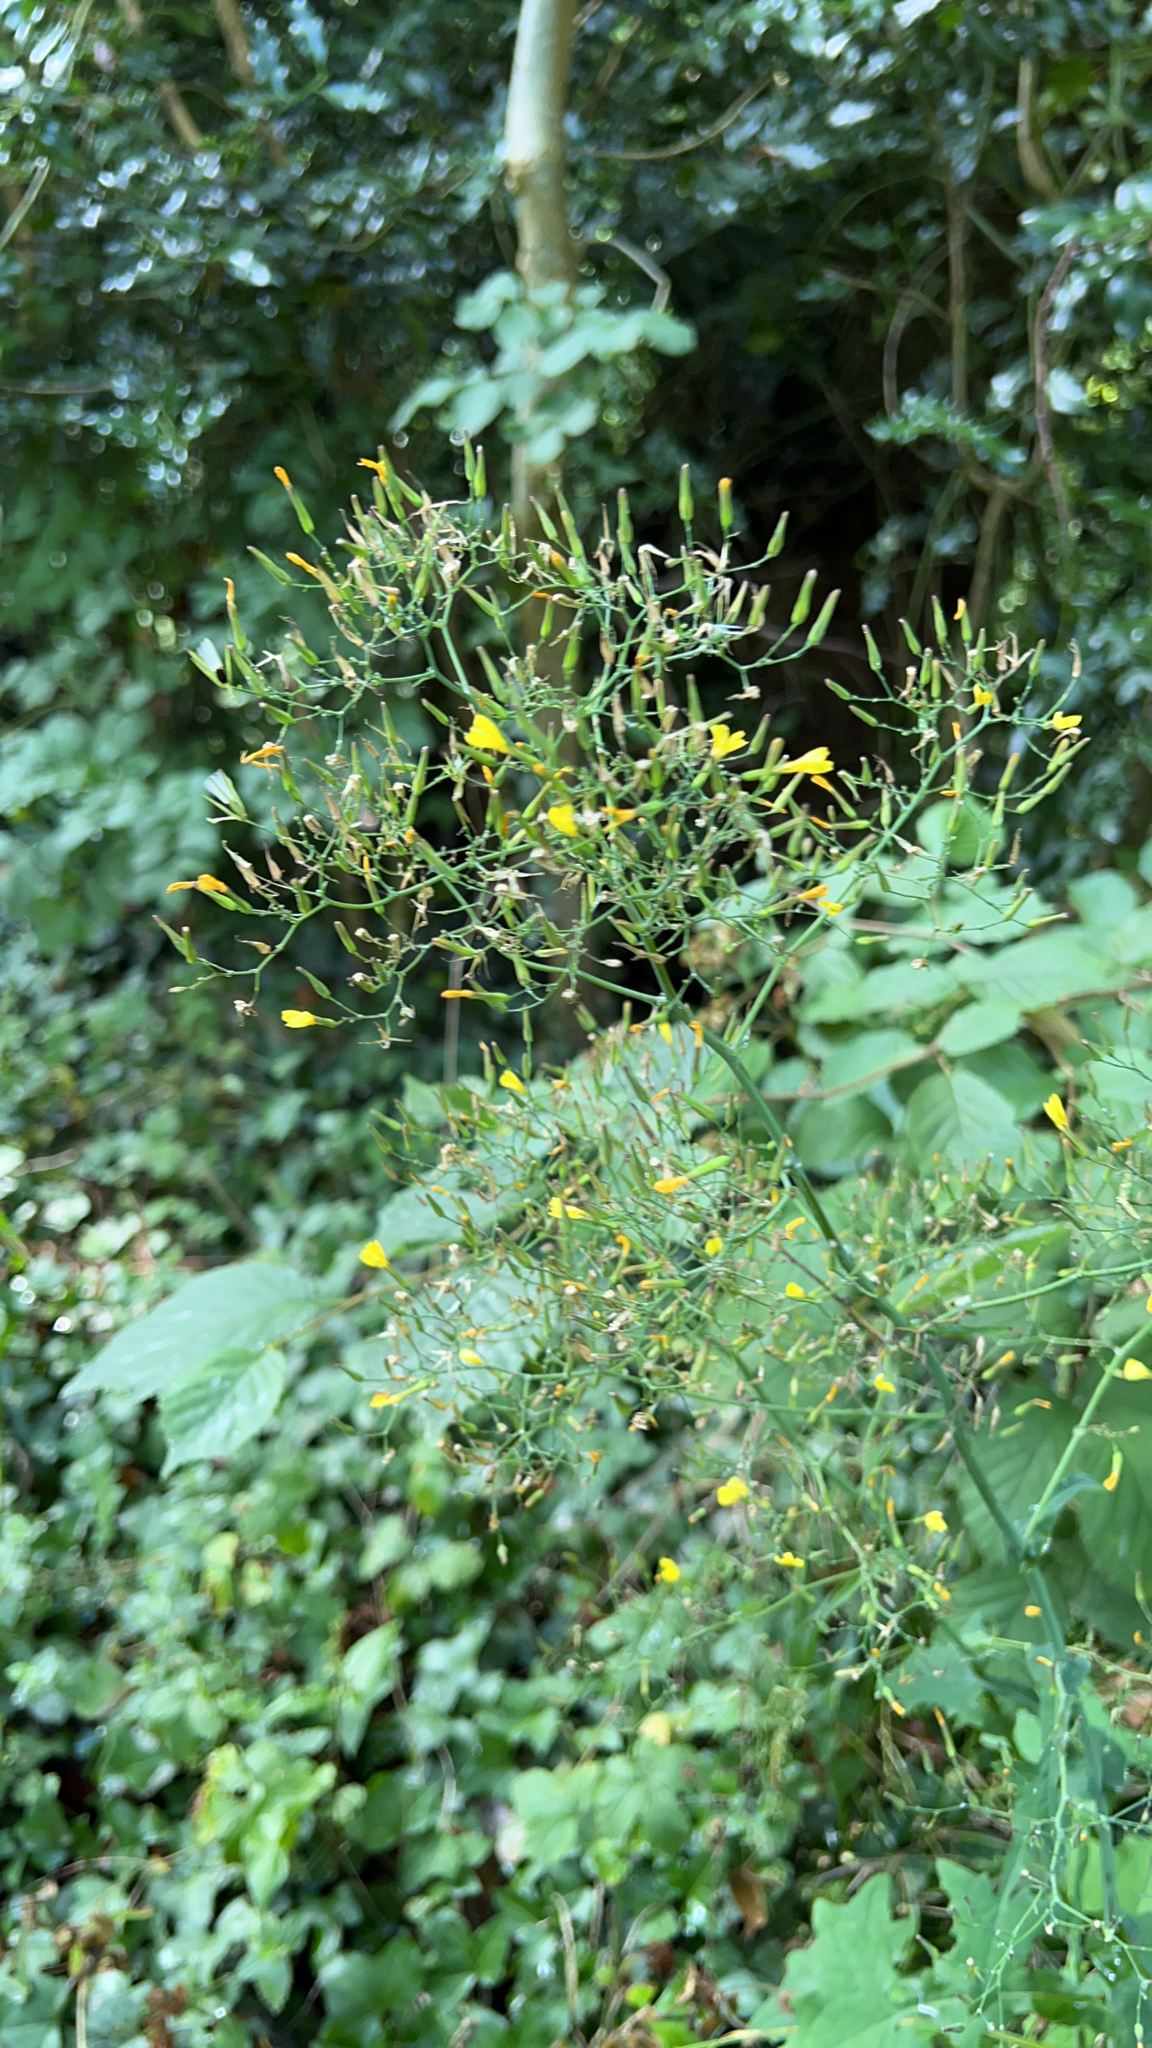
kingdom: Plantae
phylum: Tracheophyta
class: Magnoliopsida
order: Asterales
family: Asteraceae
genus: Mycelis
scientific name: Mycelis muralis
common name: Wall lettuce
